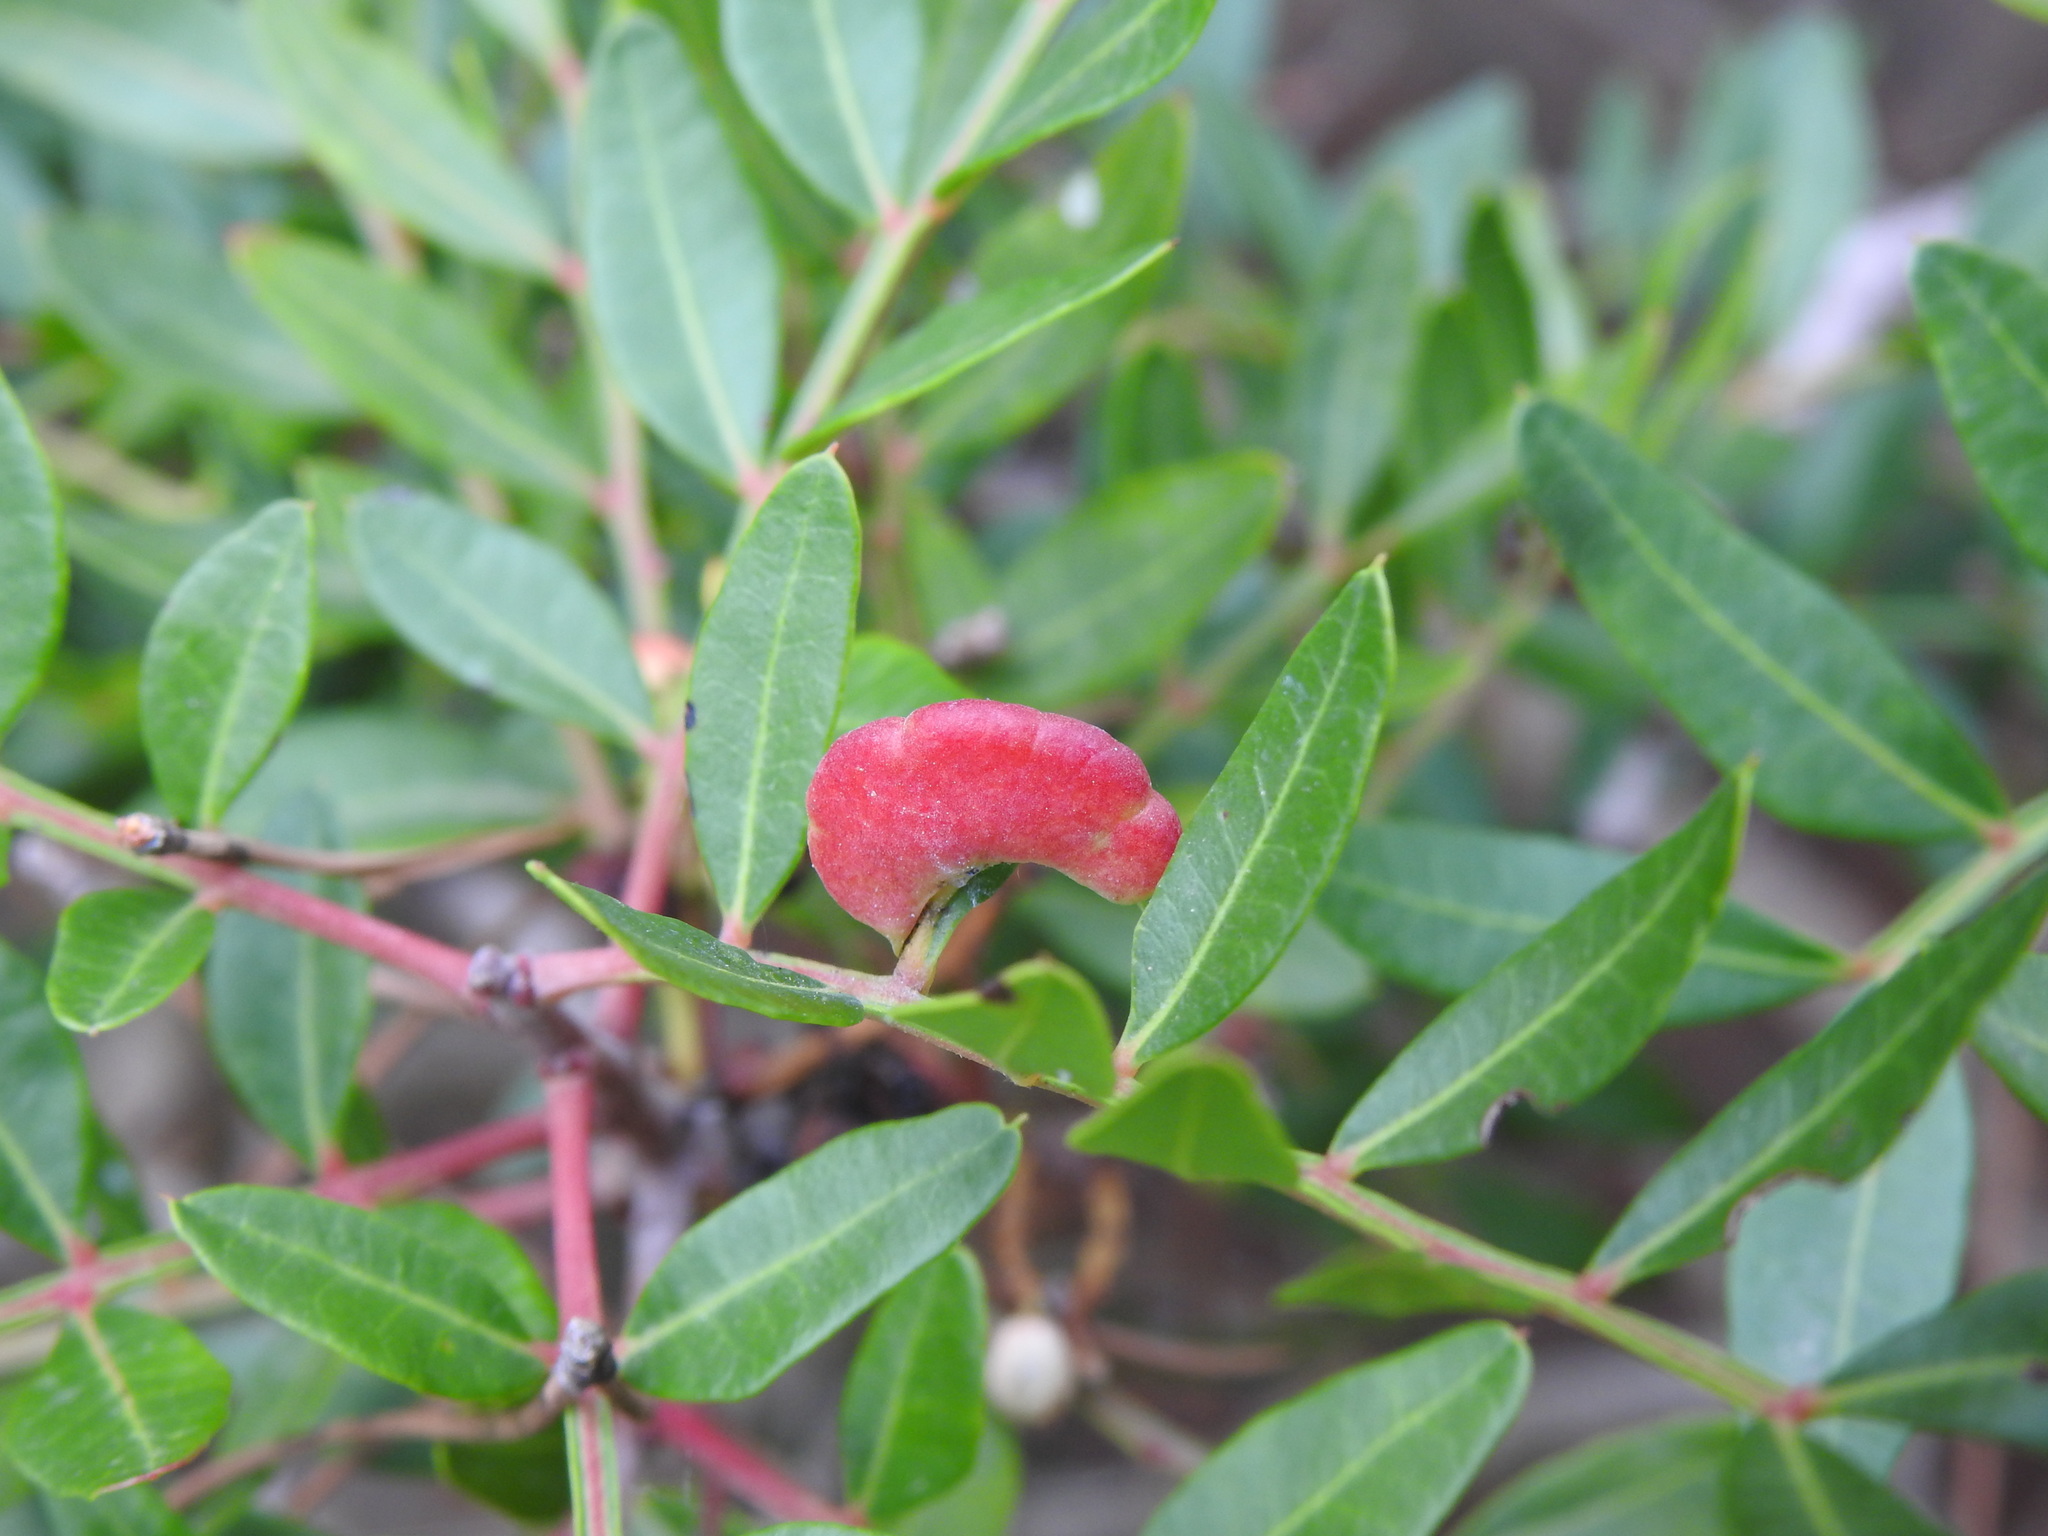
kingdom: Animalia
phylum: Arthropoda
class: Insecta
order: Hemiptera
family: Aphididae
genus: Aploneura
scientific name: Aploneura lentisci
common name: Mealy grass root aphid
